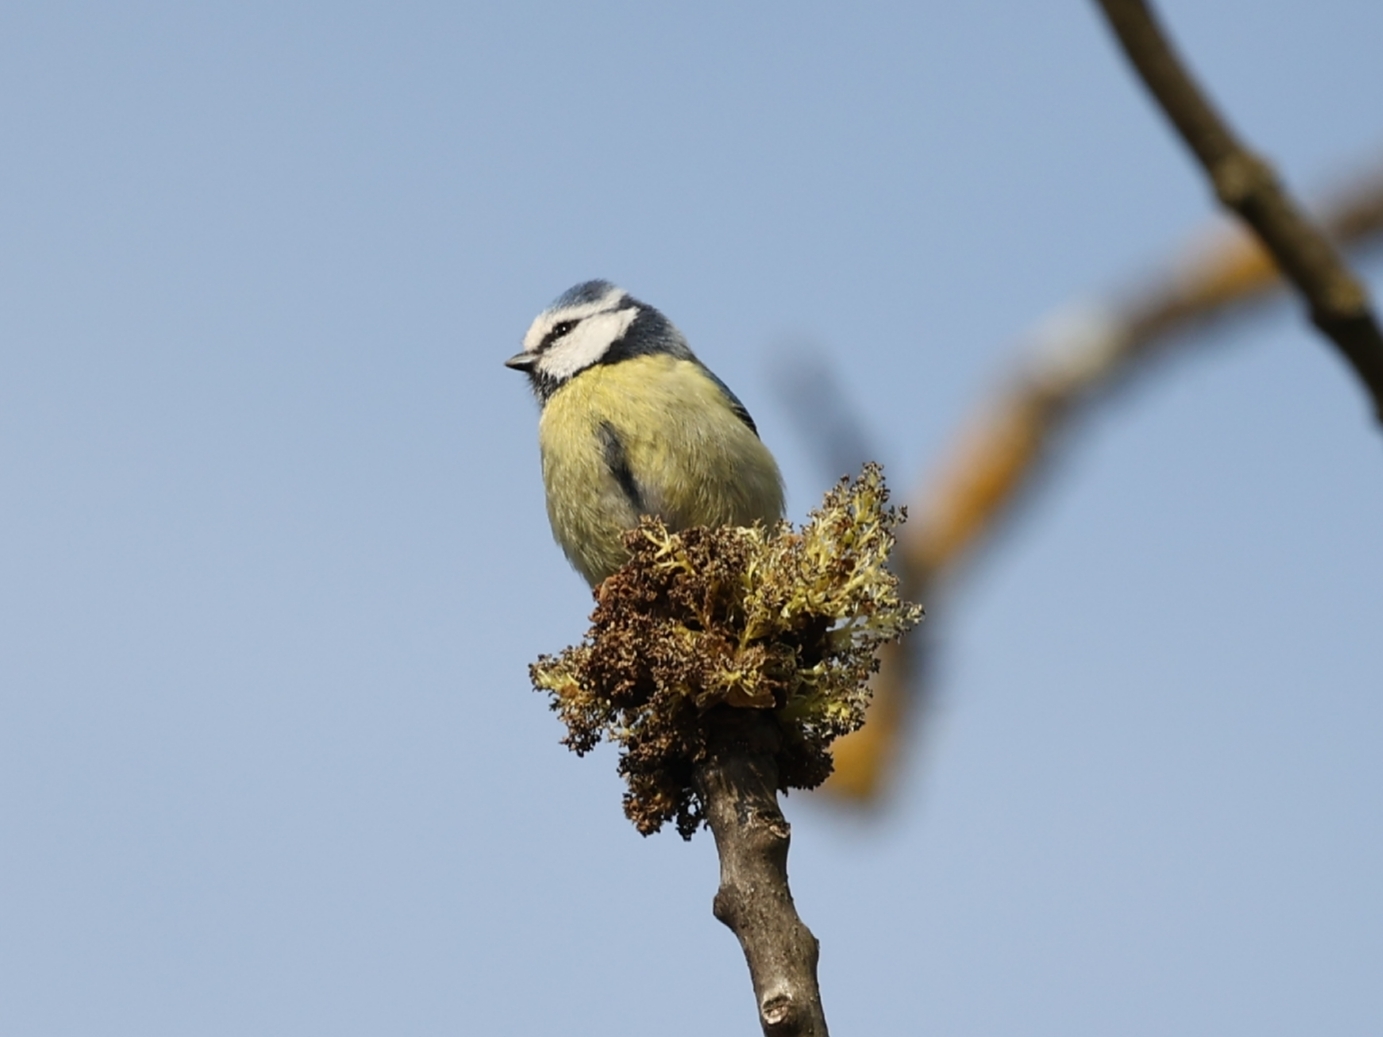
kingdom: Animalia
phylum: Chordata
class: Aves
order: Passeriformes
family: Paridae
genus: Cyanistes
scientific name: Cyanistes caeruleus
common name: Eurasian blue tit
